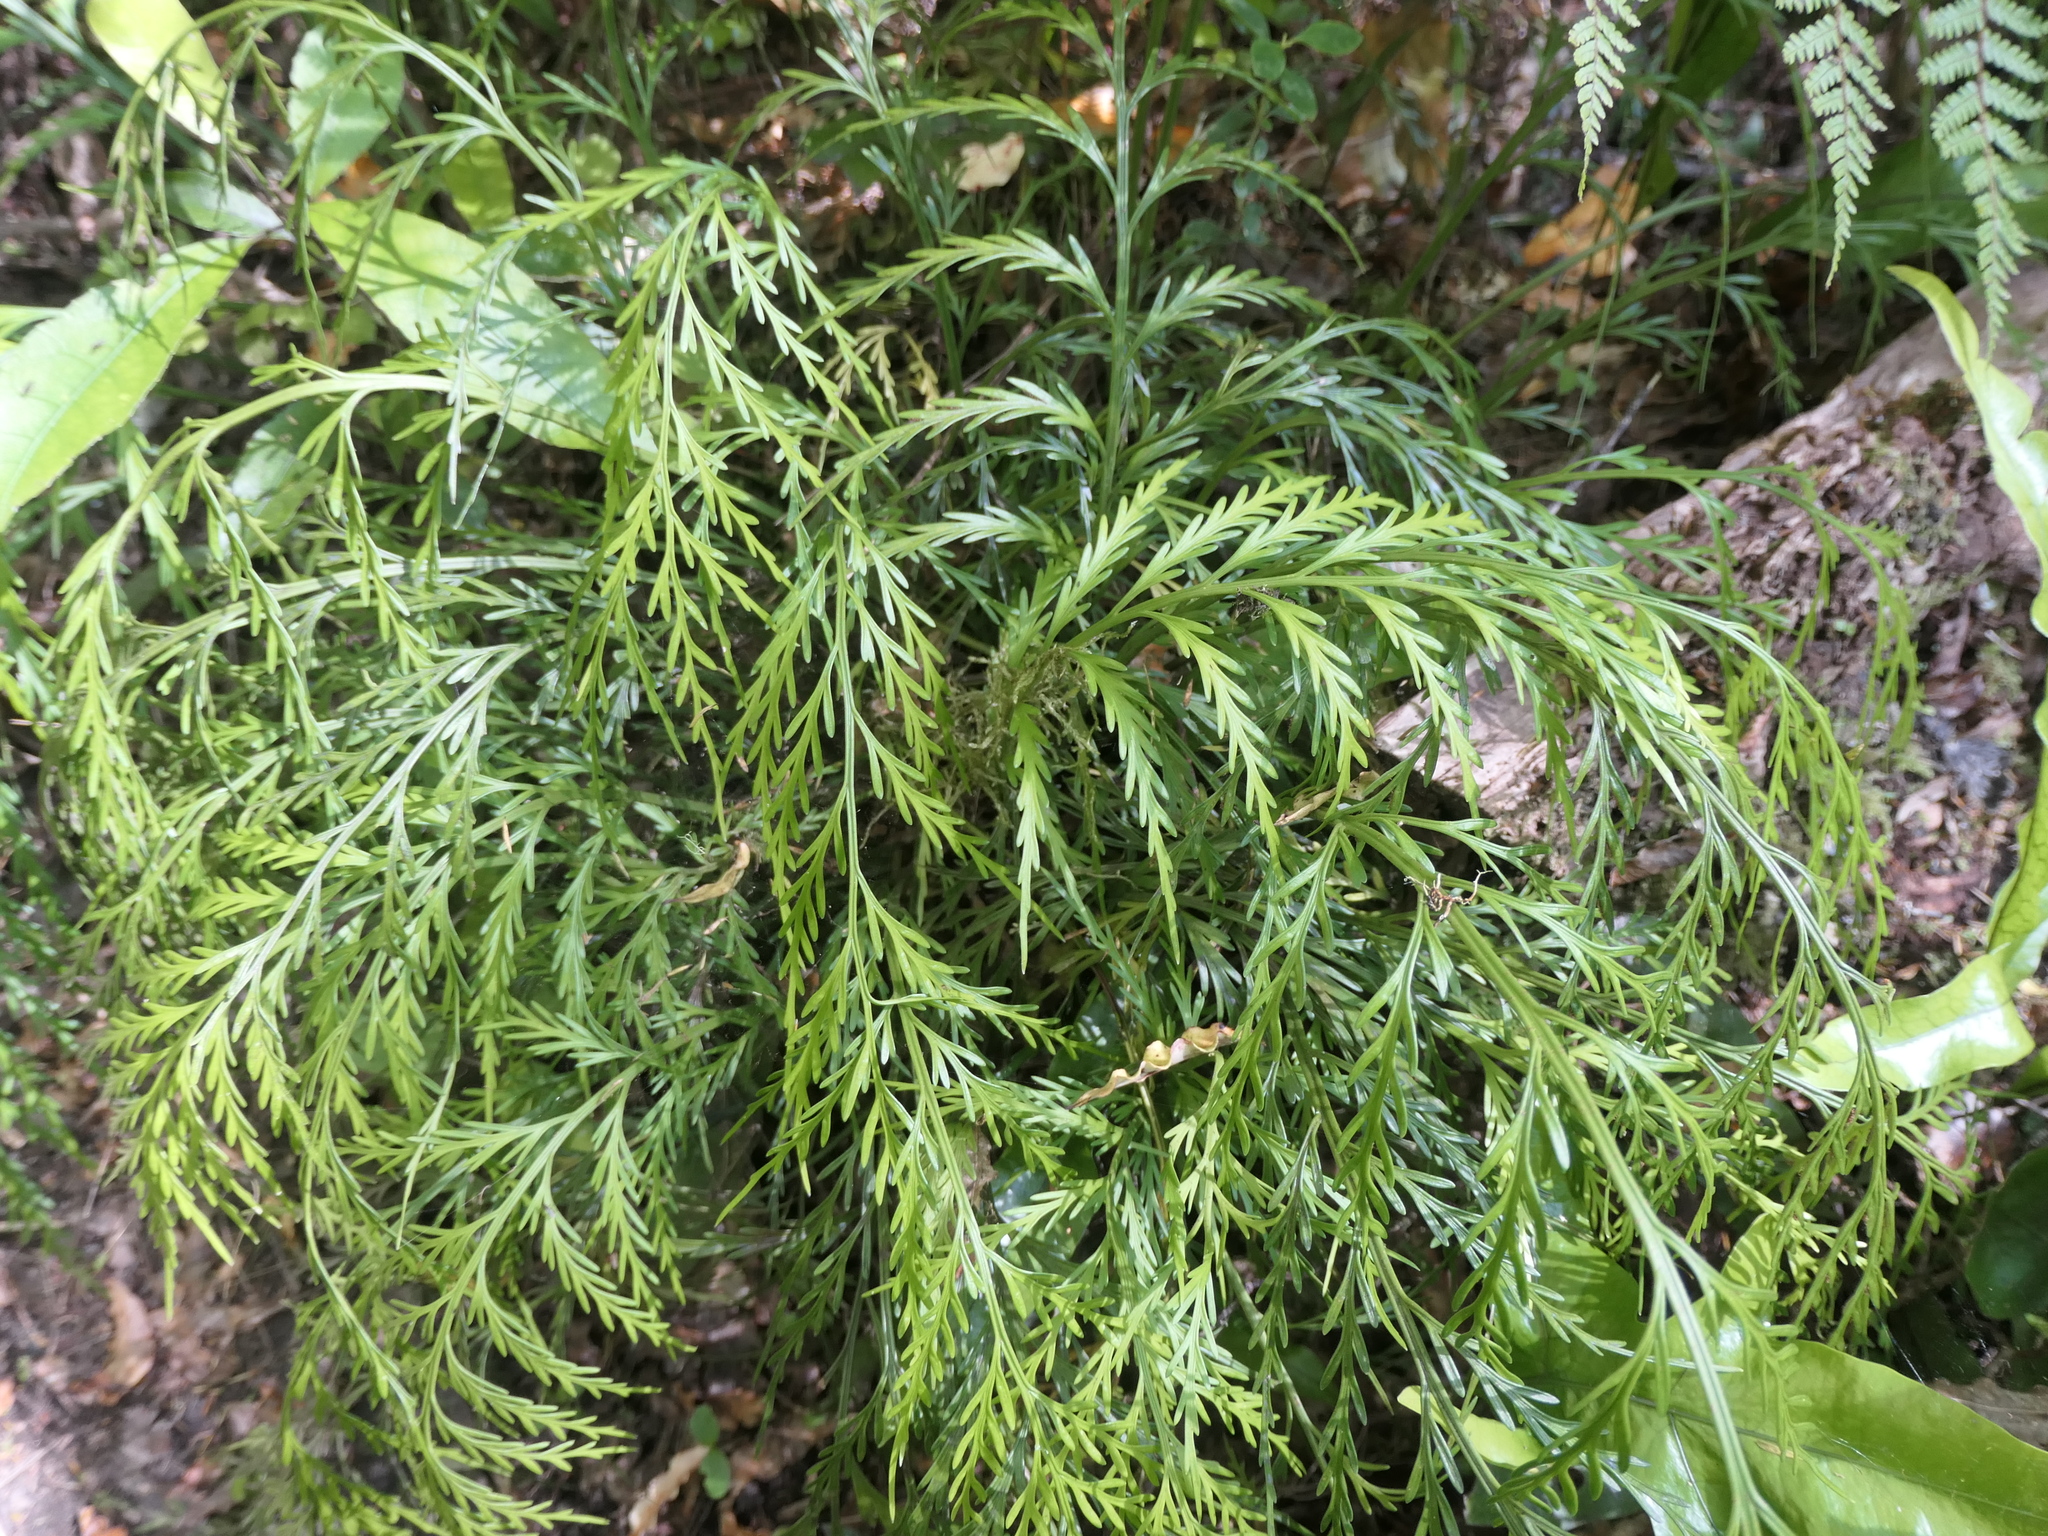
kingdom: Plantae
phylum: Tracheophyta
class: Polypodiopsida
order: Polypodiales
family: Aspleniaceae
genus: Asplenium
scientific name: Asplenium flaccidum
